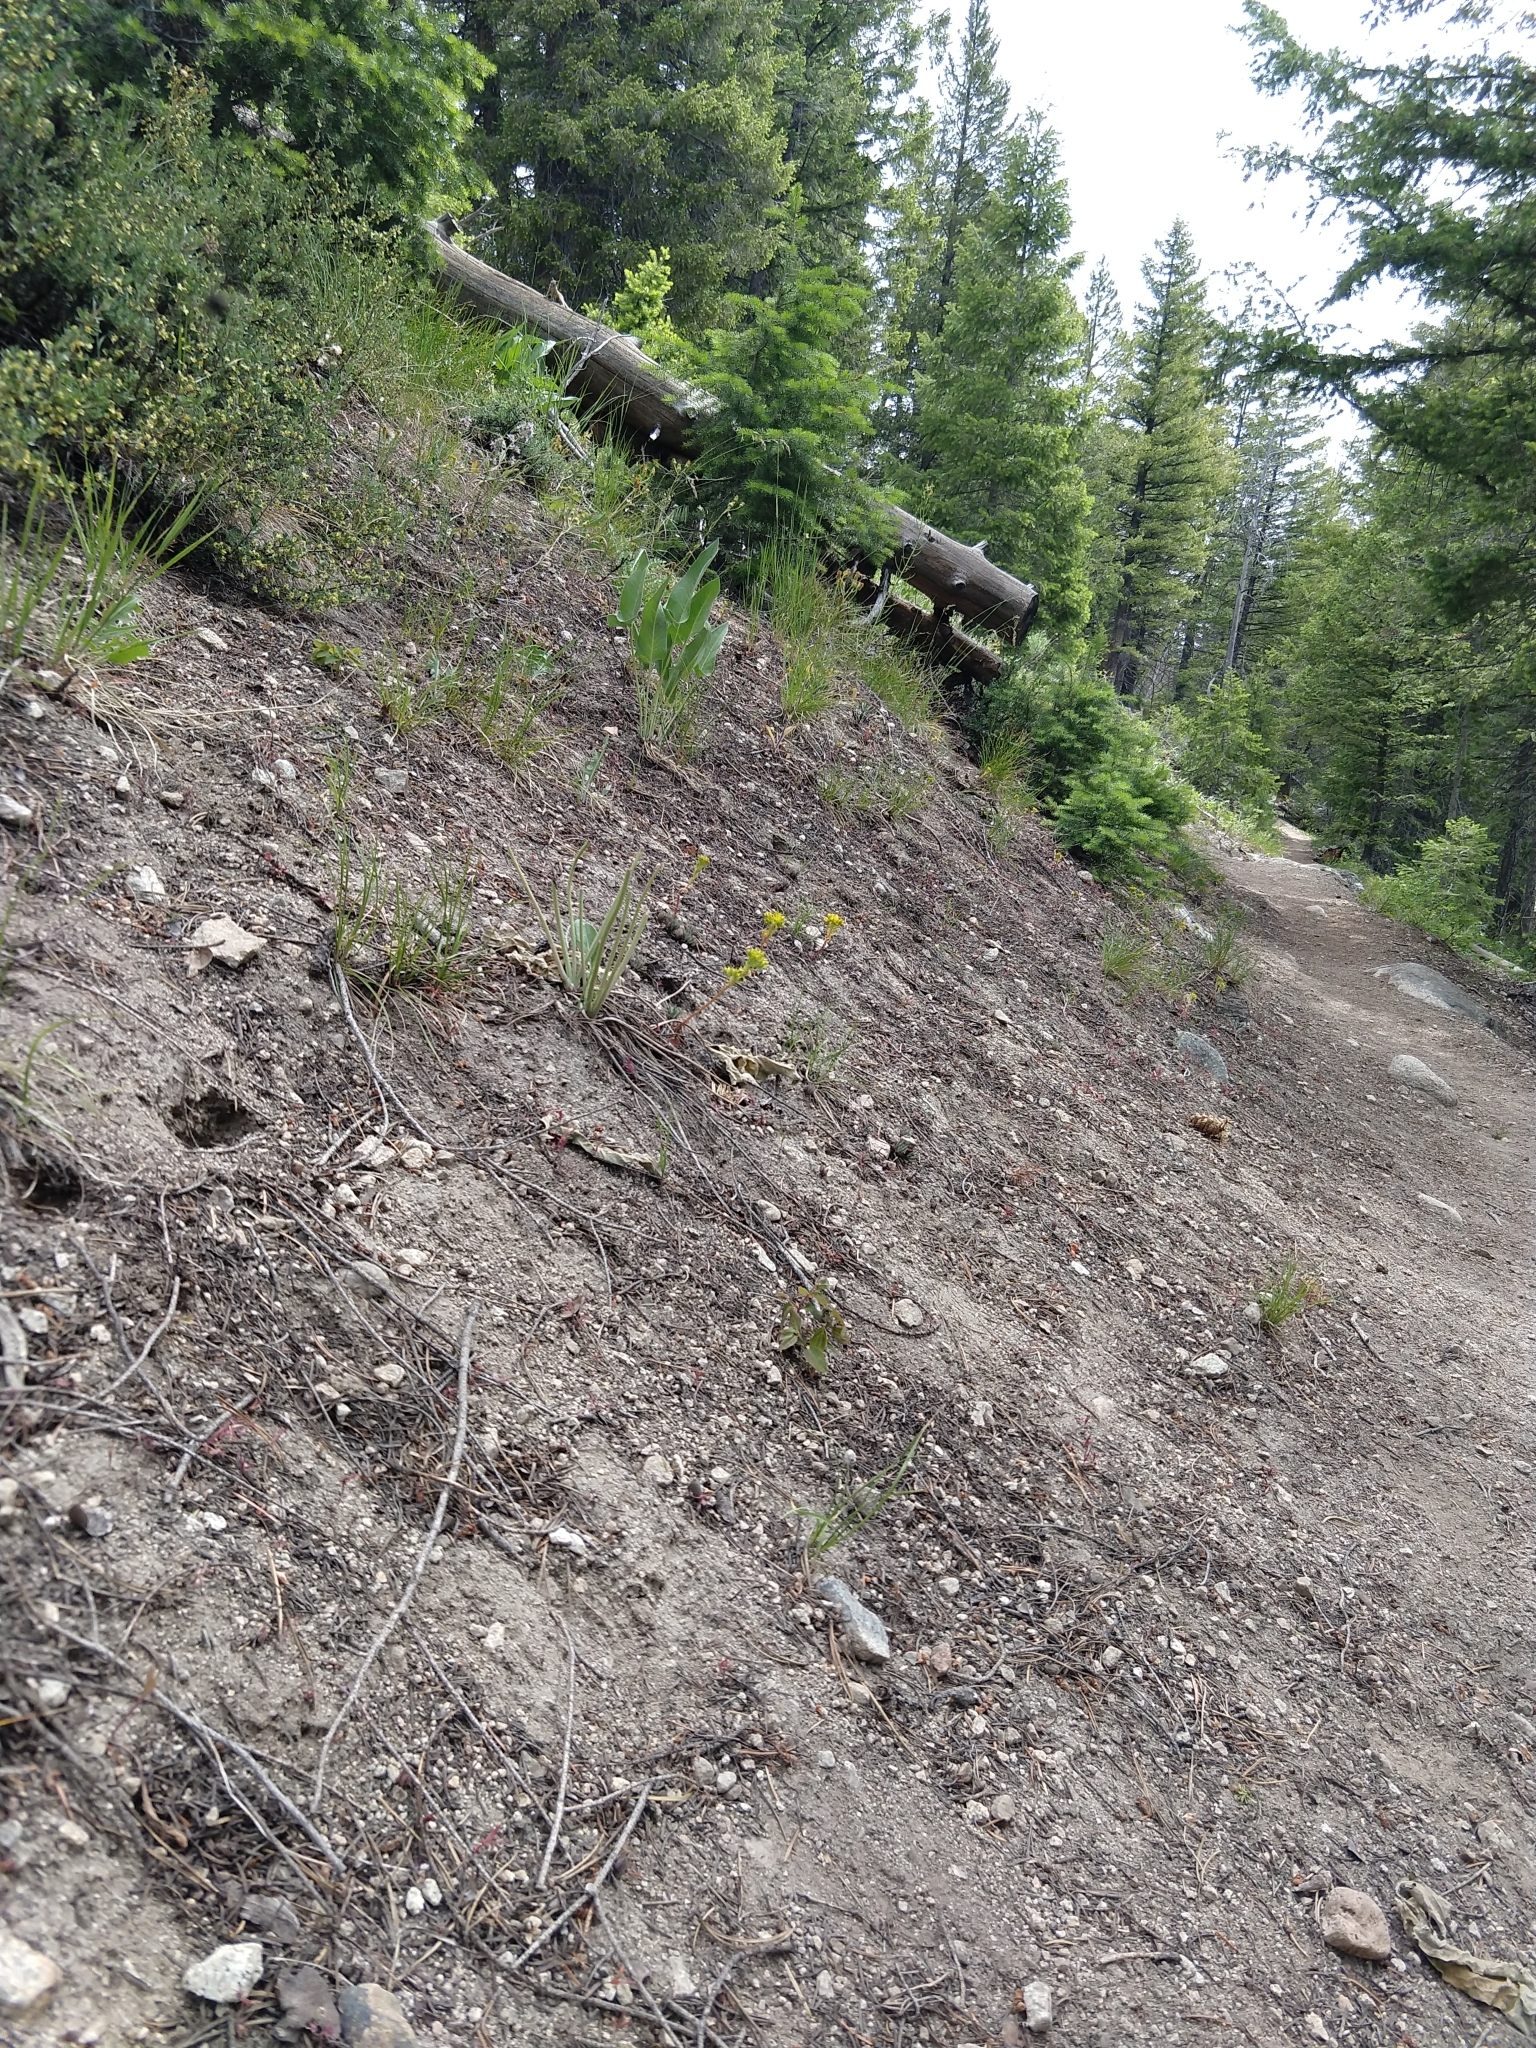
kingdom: Plantae
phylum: Tracheophyta
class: Magnoliopsida
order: Saxifragales
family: Crassulaceae
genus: Sedum
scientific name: Sedum lanceolatum
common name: Common stonecrop
